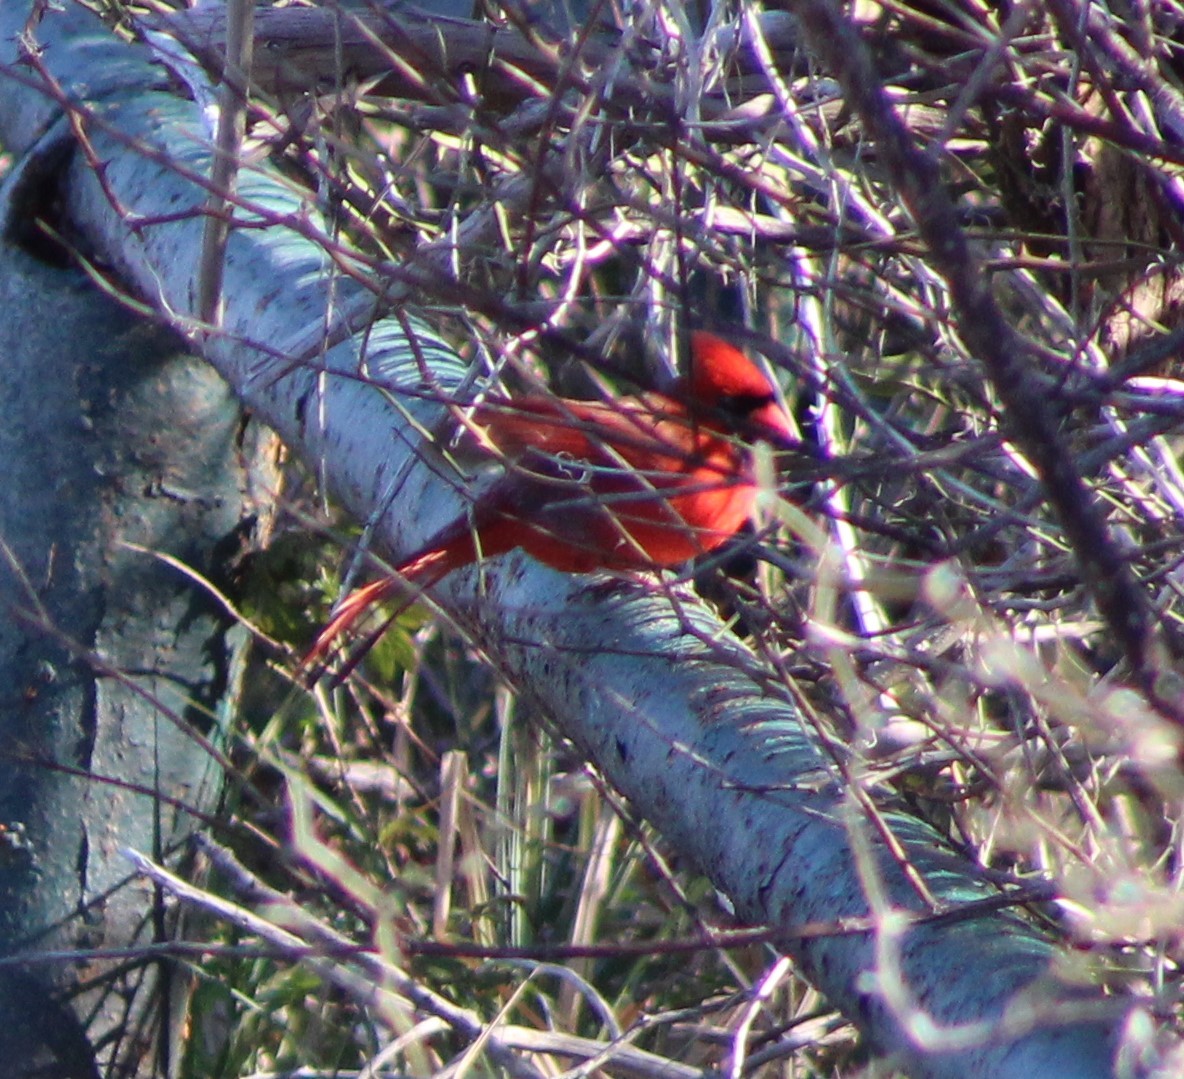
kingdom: Animalia
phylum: Chordata
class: Aves
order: Passeriformes
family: Cardinalidae
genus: Cardinalis
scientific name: Cardinalis cardinalis
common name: Northern cardinal
